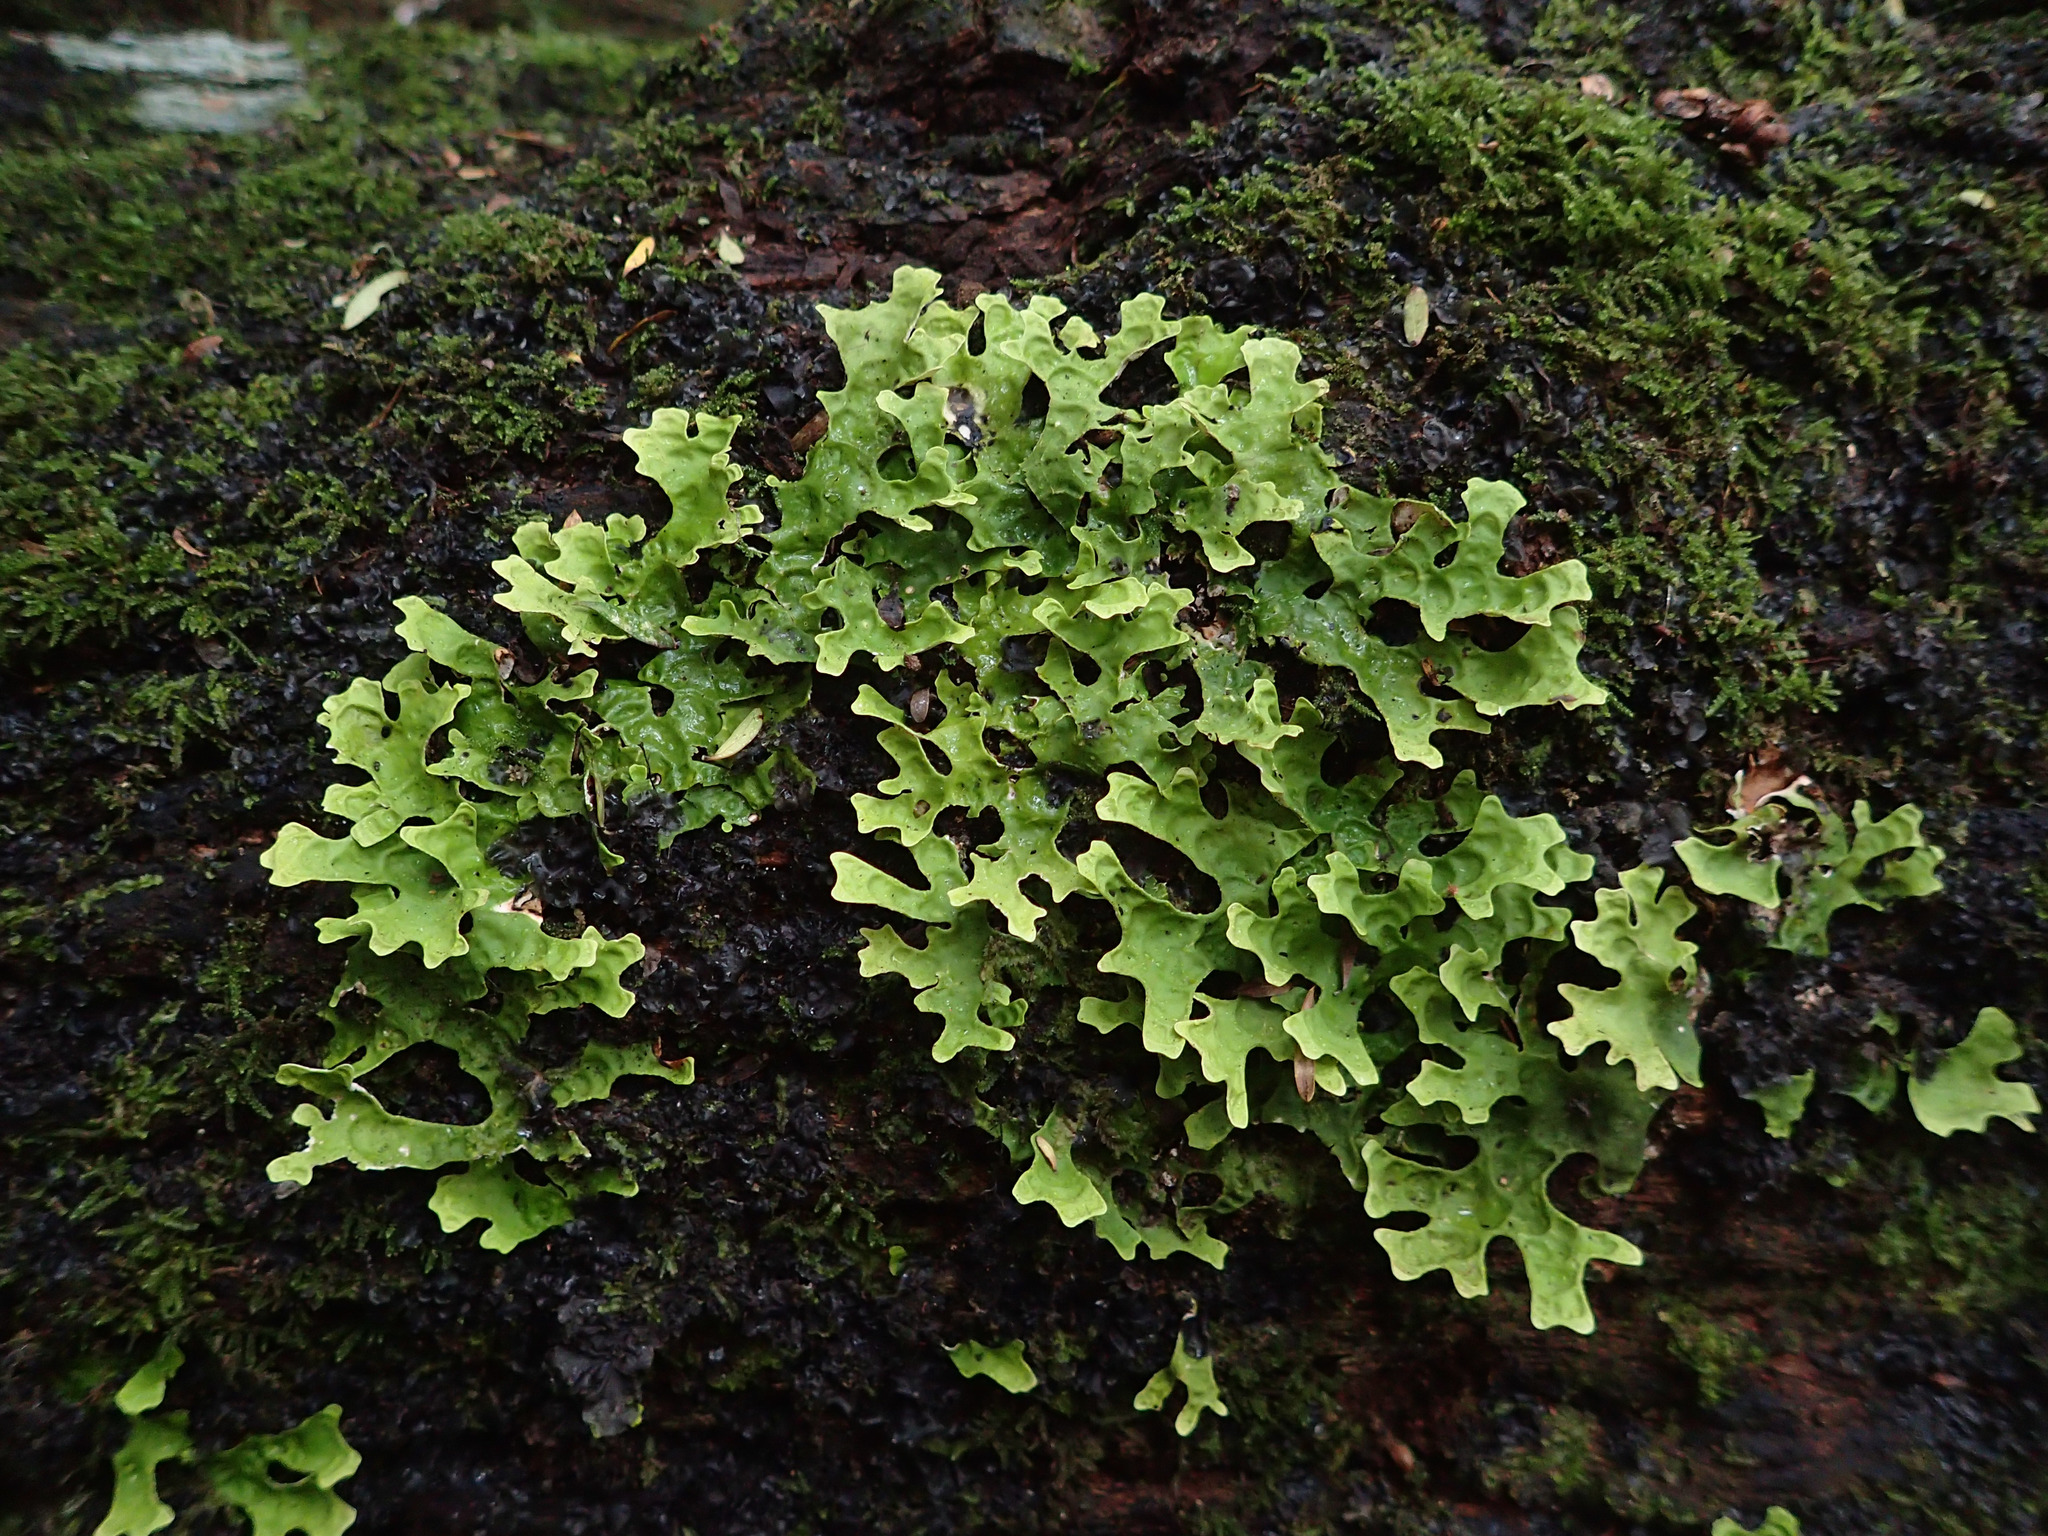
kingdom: Fungi
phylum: Ascomycota
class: Lecanoromycetes
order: Peltigerales
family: Lobariaceae
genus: Pseudocyphellaria
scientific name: Pseudocyphellaria rufovirescens
